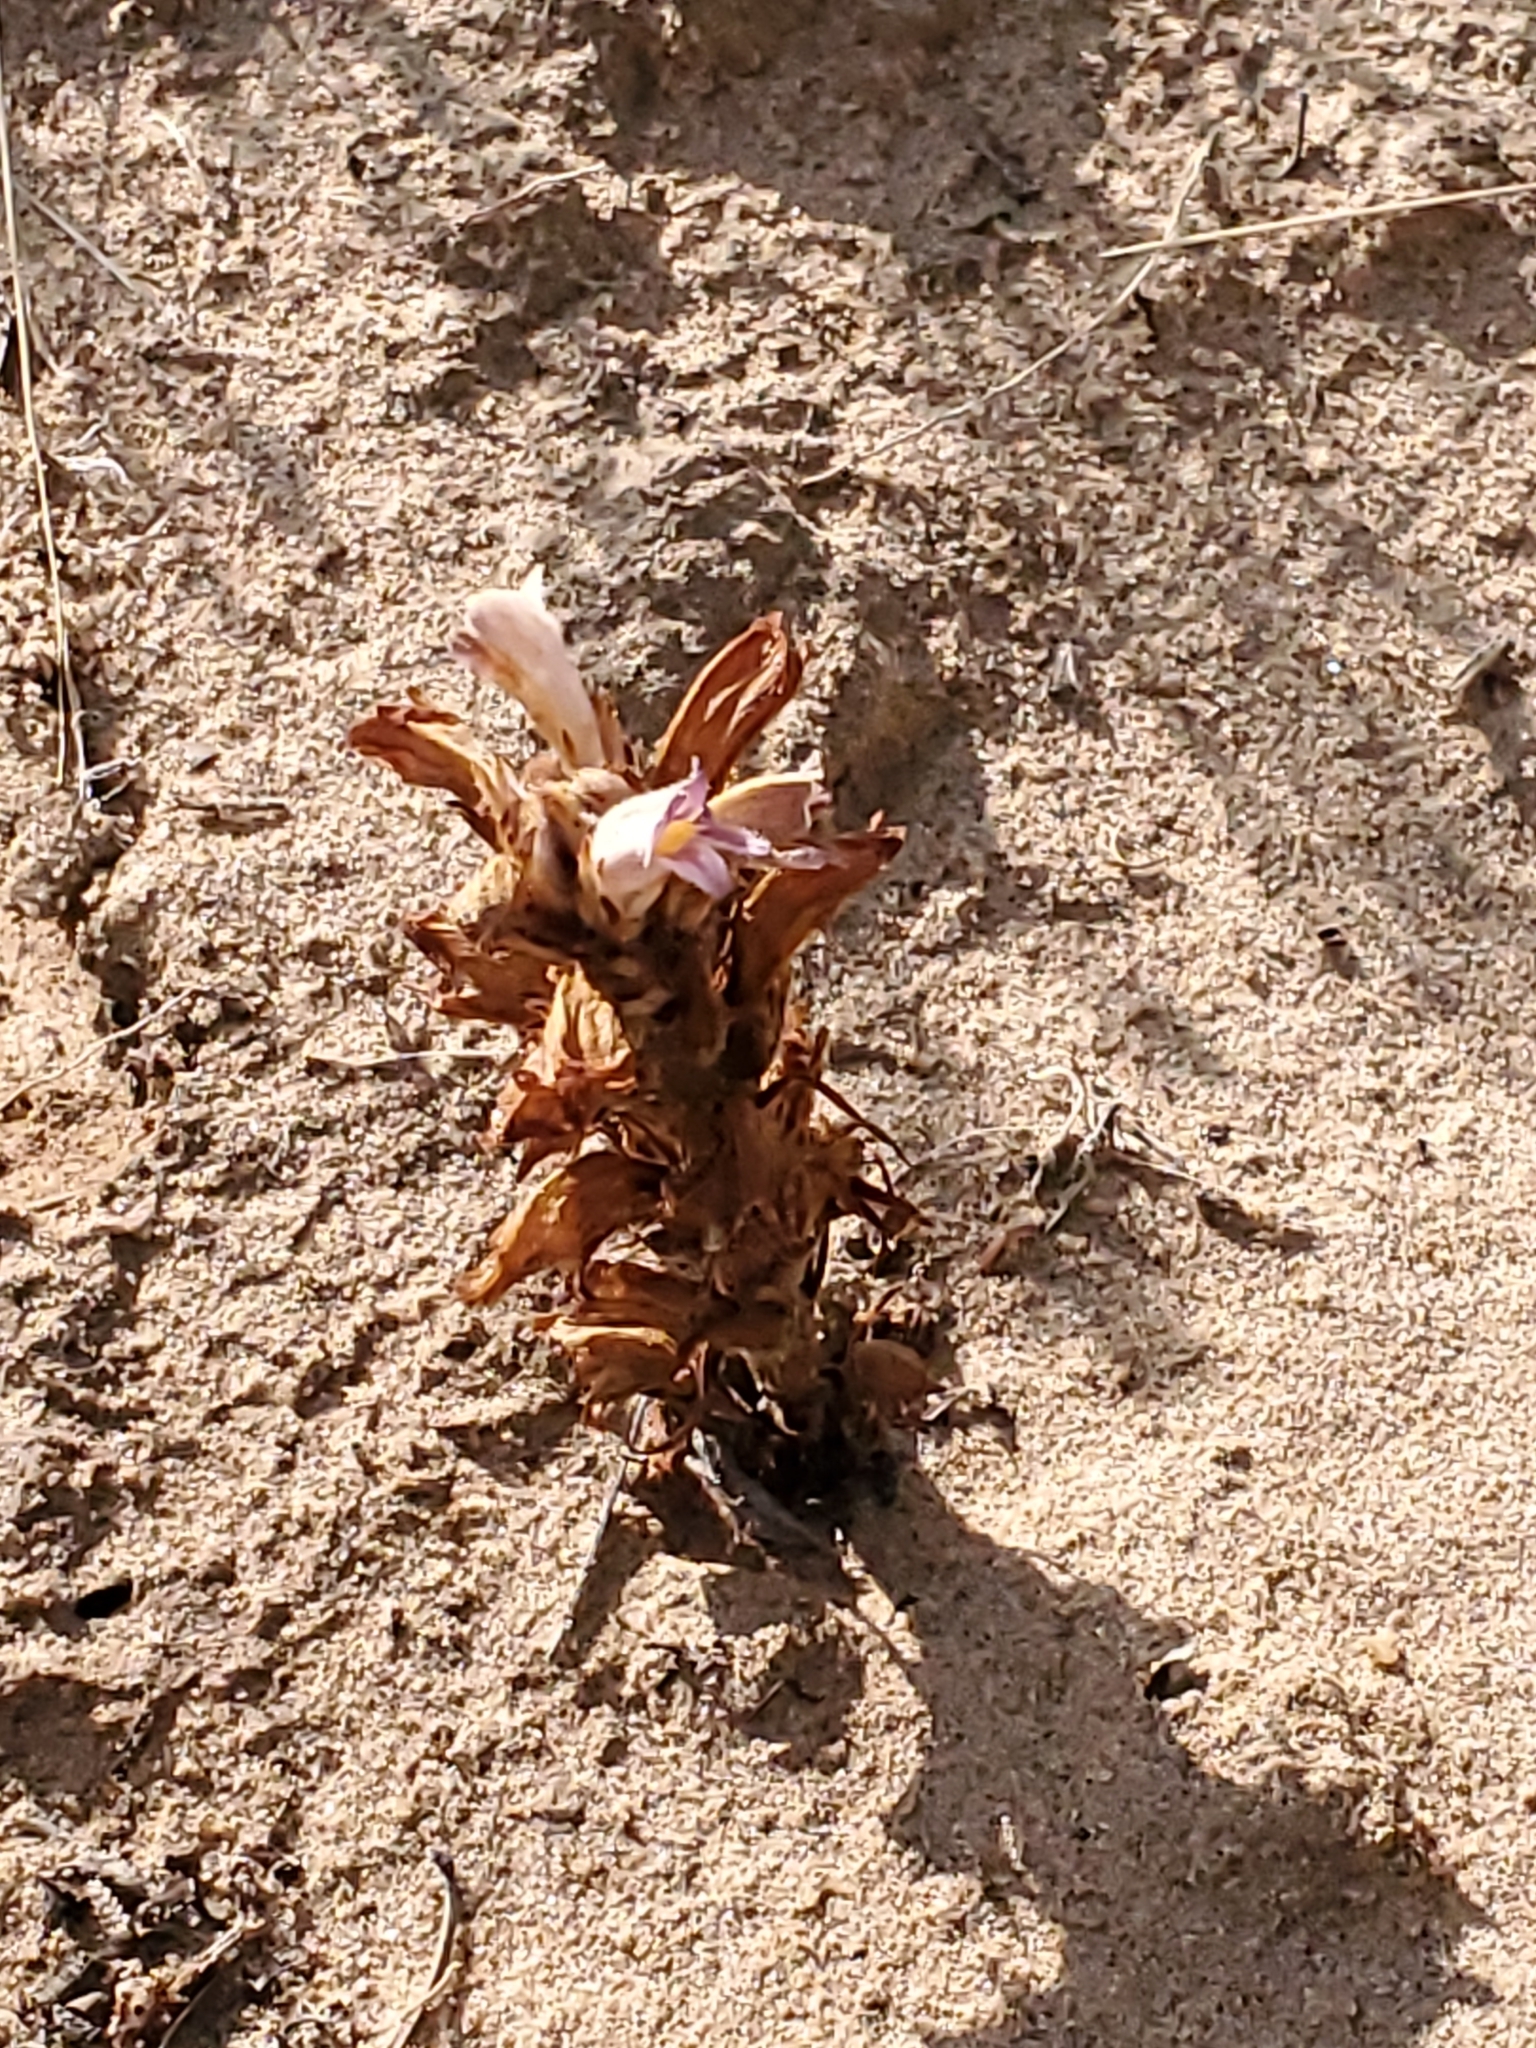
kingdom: Plantae
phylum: Tracheophyta
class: Magnoliopsida
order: Lamiales
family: Orobanchaceae
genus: Aphyllon
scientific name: Aphyllon ludovicianum
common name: Louisiana broomrape
